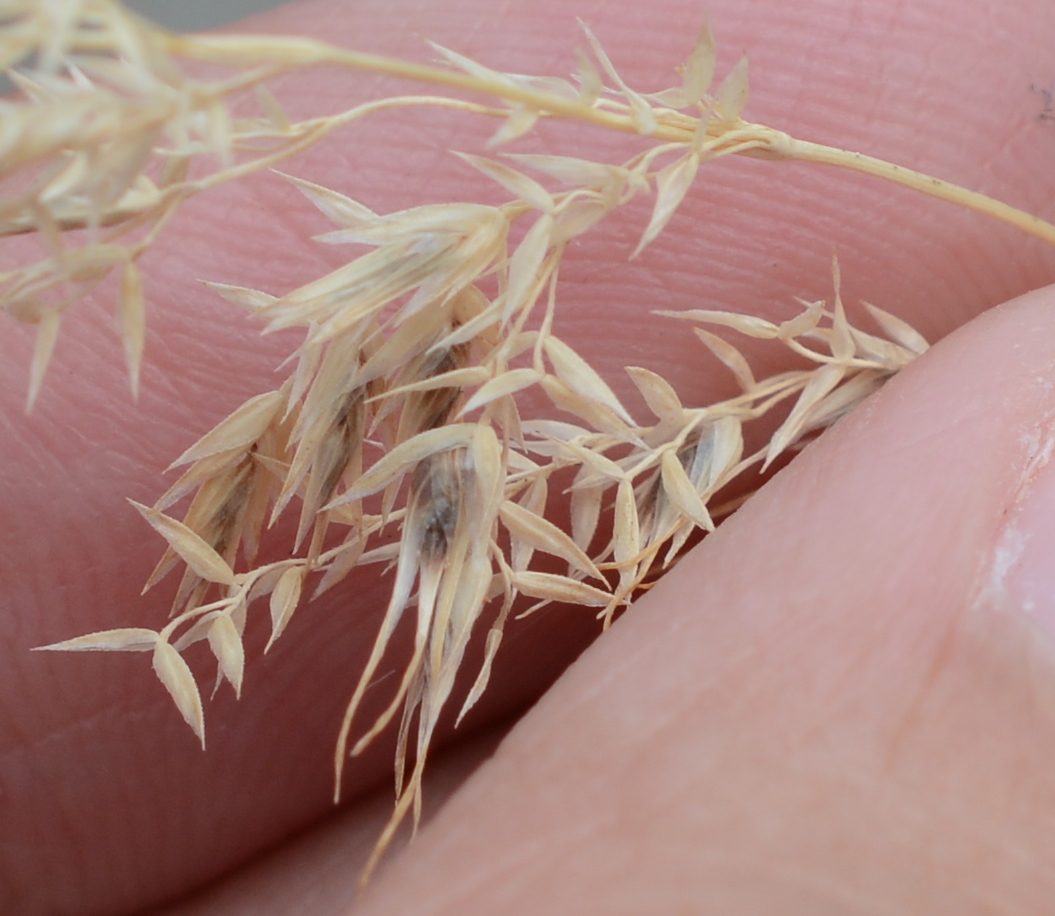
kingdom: Plantae
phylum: Tracheophyta
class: Liliopsida
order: Poales
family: Poaceae
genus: Poa
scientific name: Poa bulbosa
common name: Bulbous bluegrass
